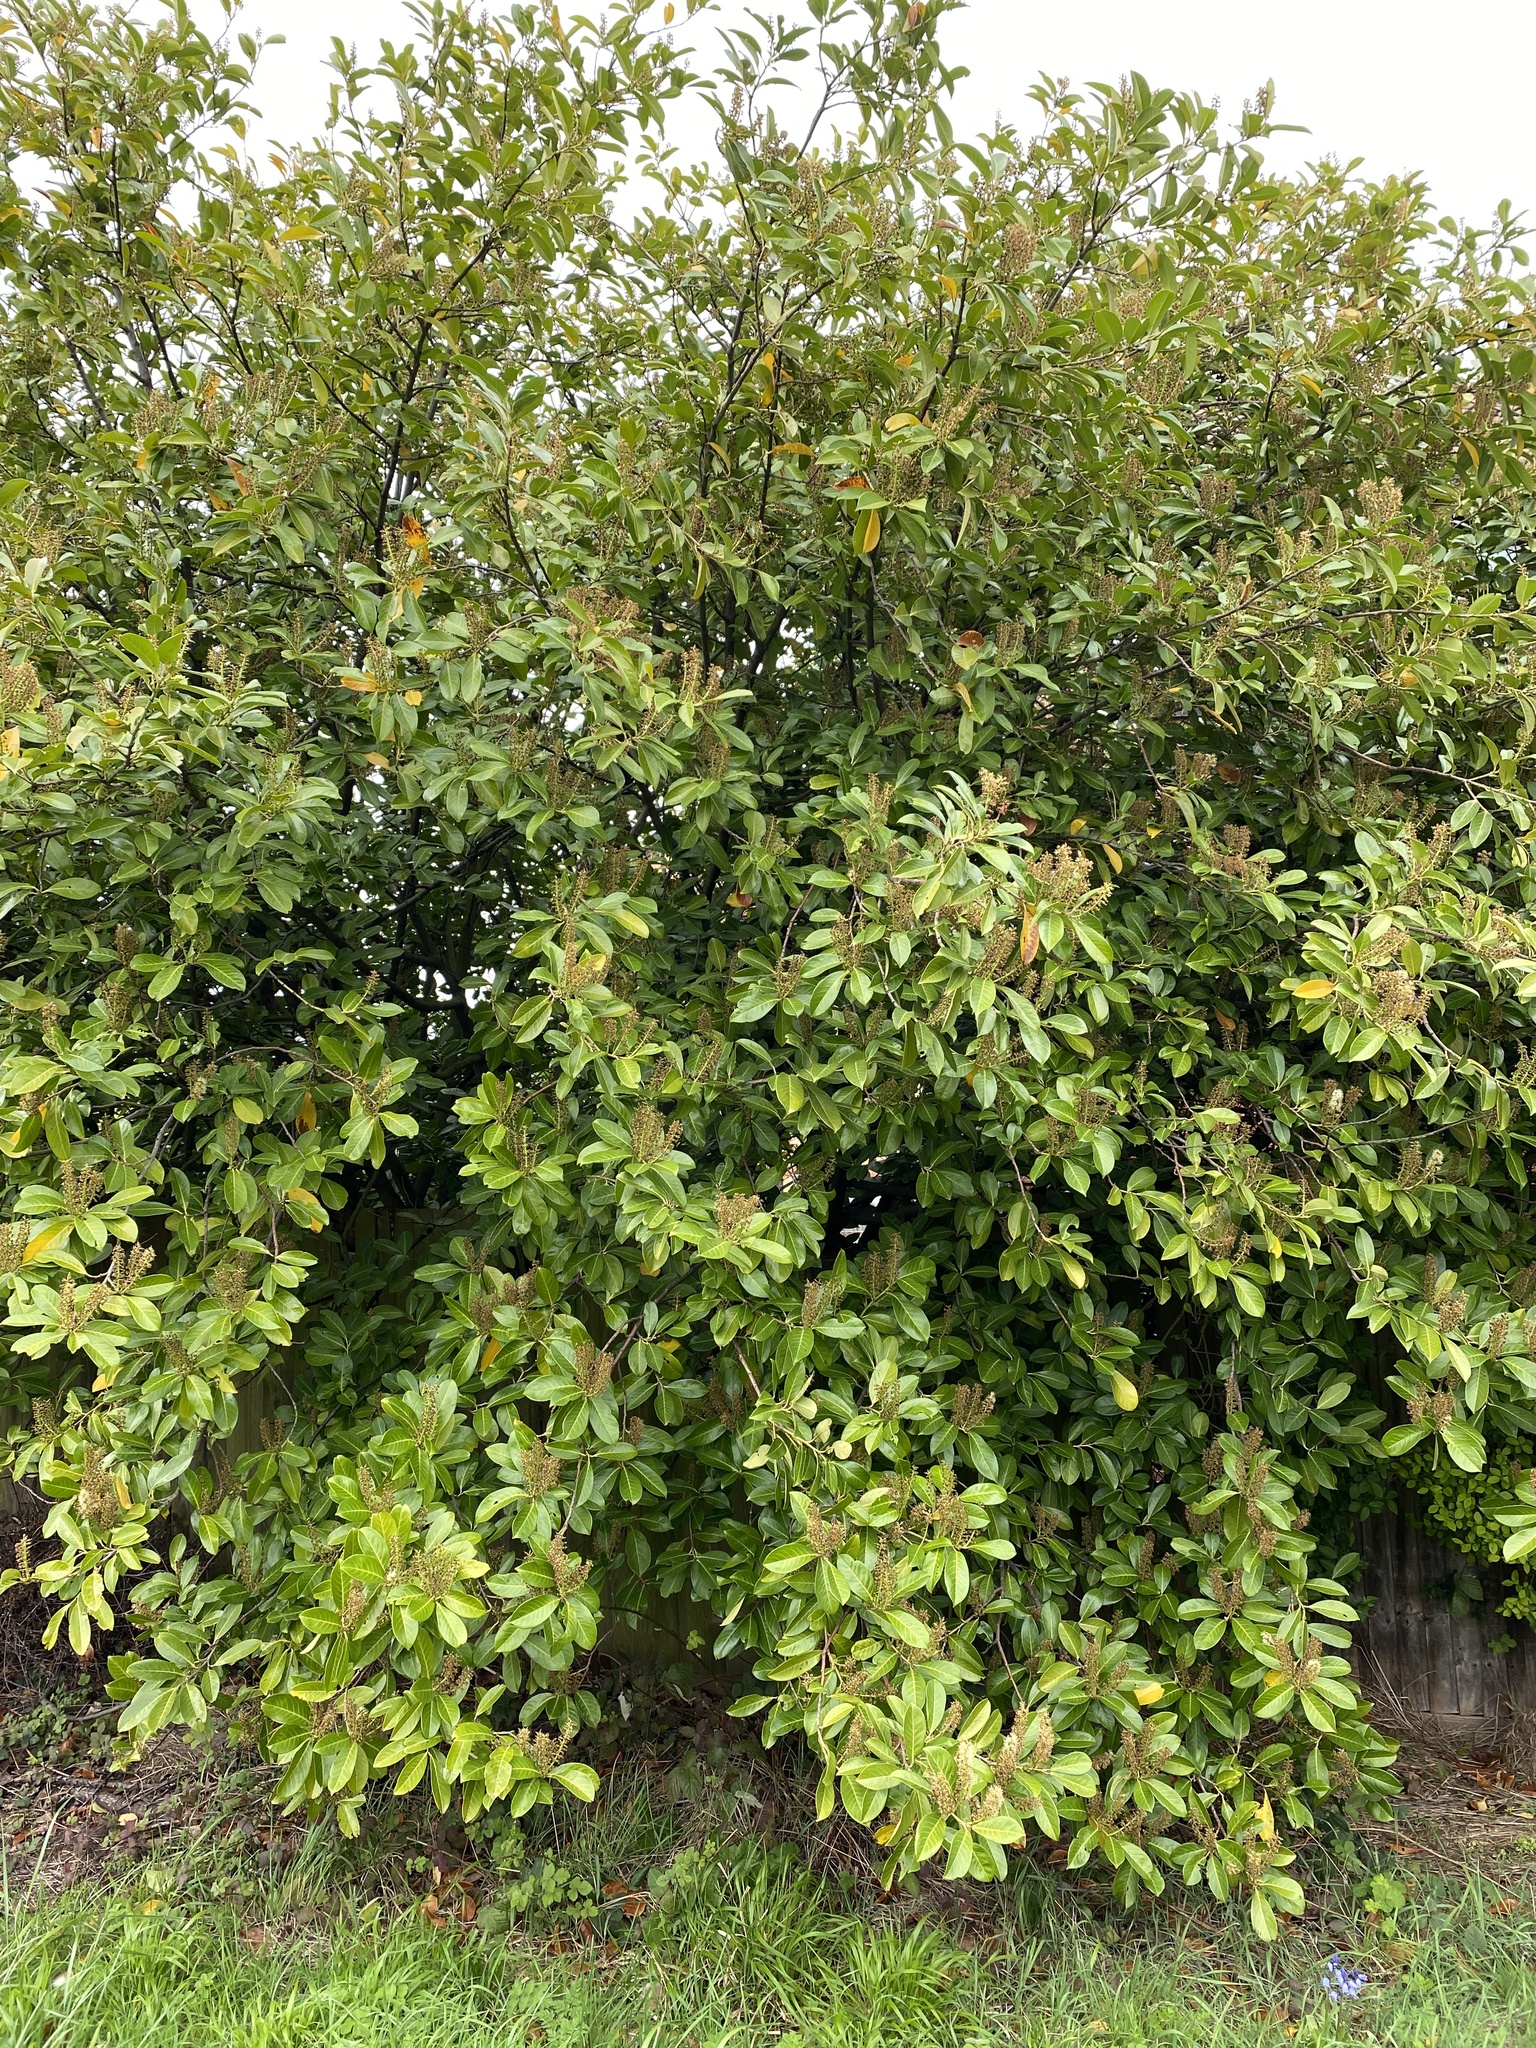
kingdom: Plantae
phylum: Tracheophyta
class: Magnoliopsida
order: Rosales
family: Rosaceae
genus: Prunus
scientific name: Prunus laurocerasus
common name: Cherry laurel
